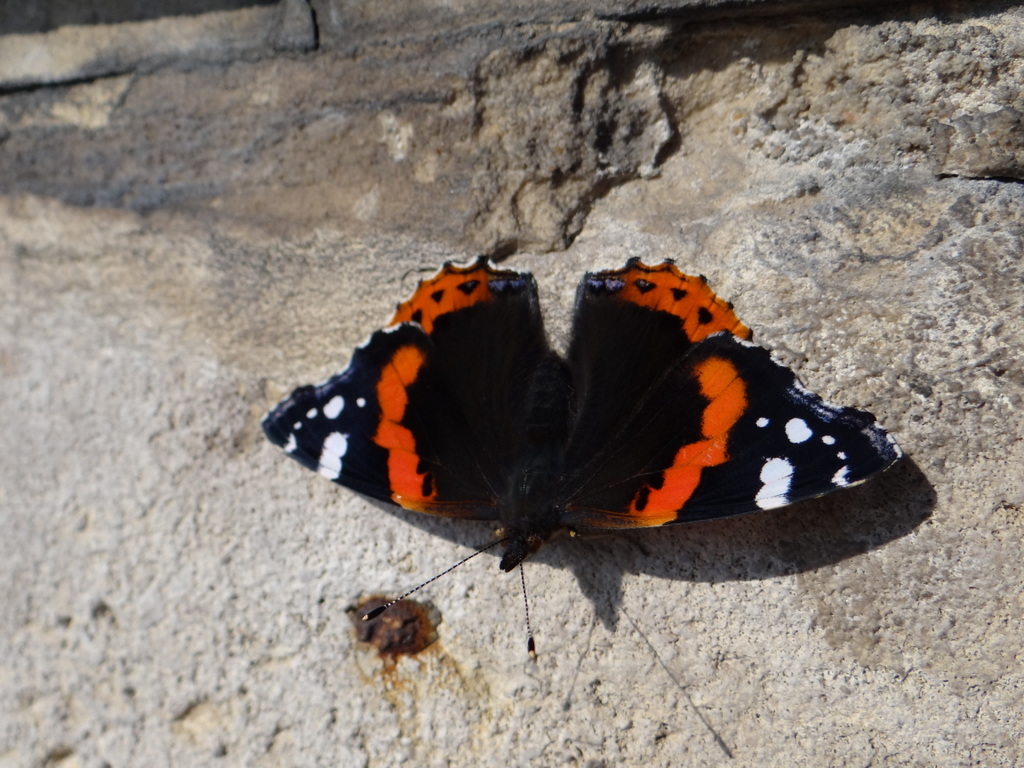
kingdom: Animalia
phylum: Arthropoda
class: Insecta
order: Lepidoptera
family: Nymphalidae
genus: Vanessa
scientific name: Vanessa atalanta
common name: Red admiral
